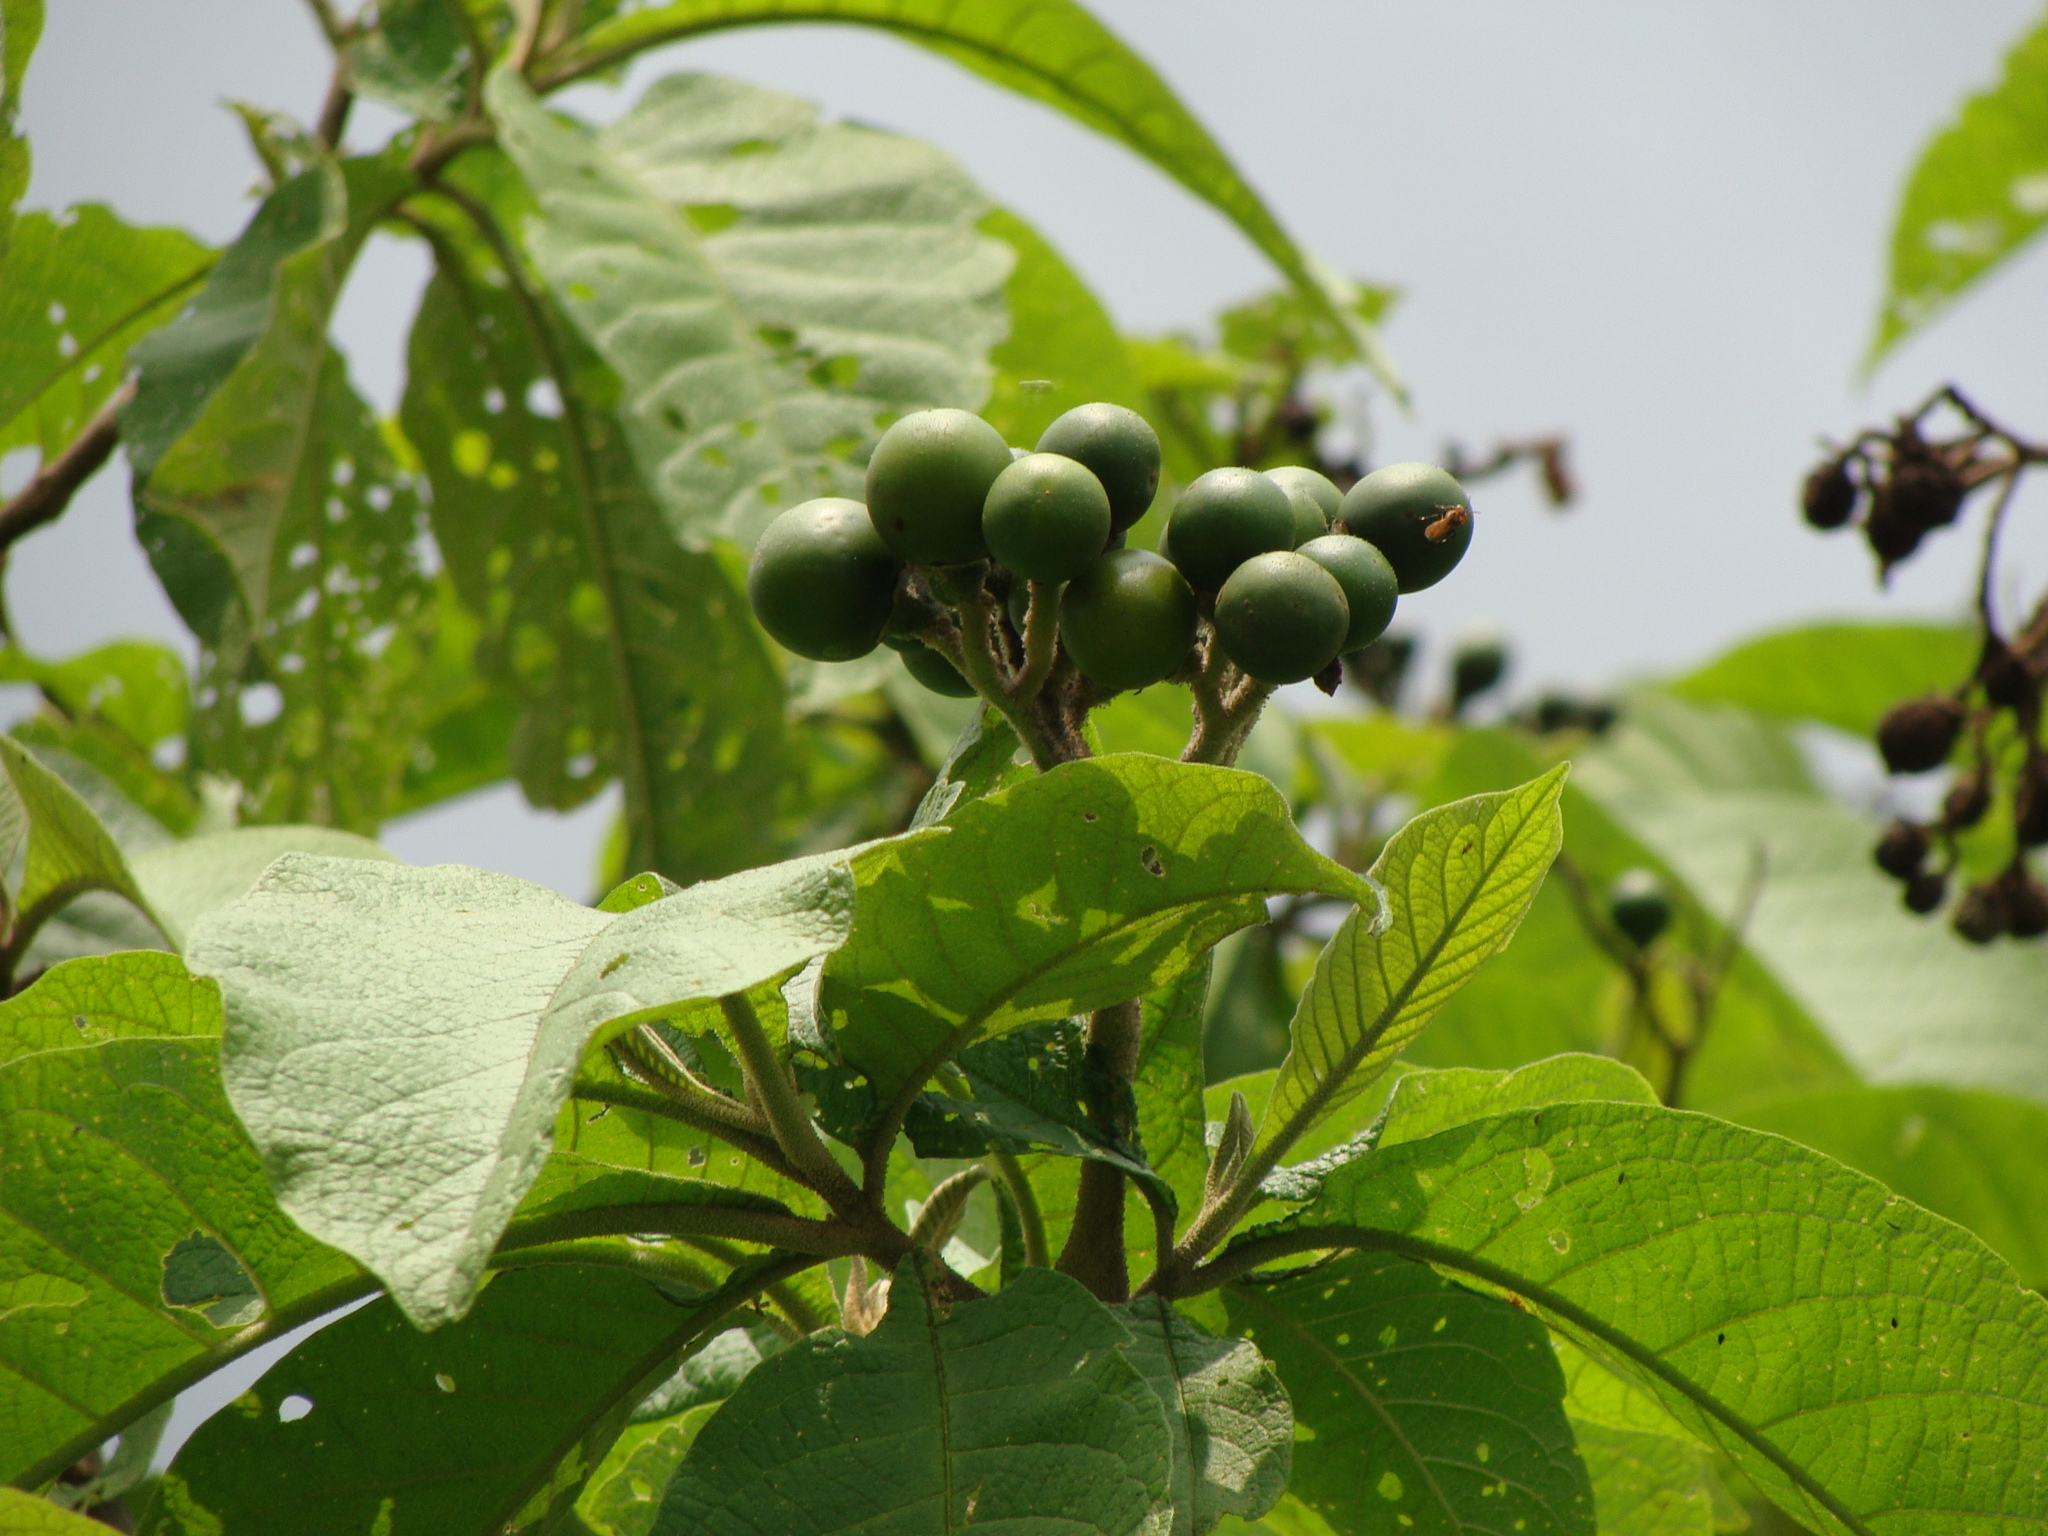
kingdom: Plantae
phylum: Tracheophyta
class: Magnoliopsida
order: Solanales
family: Solanaceae
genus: Solanum
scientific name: Solanum chiapasense
